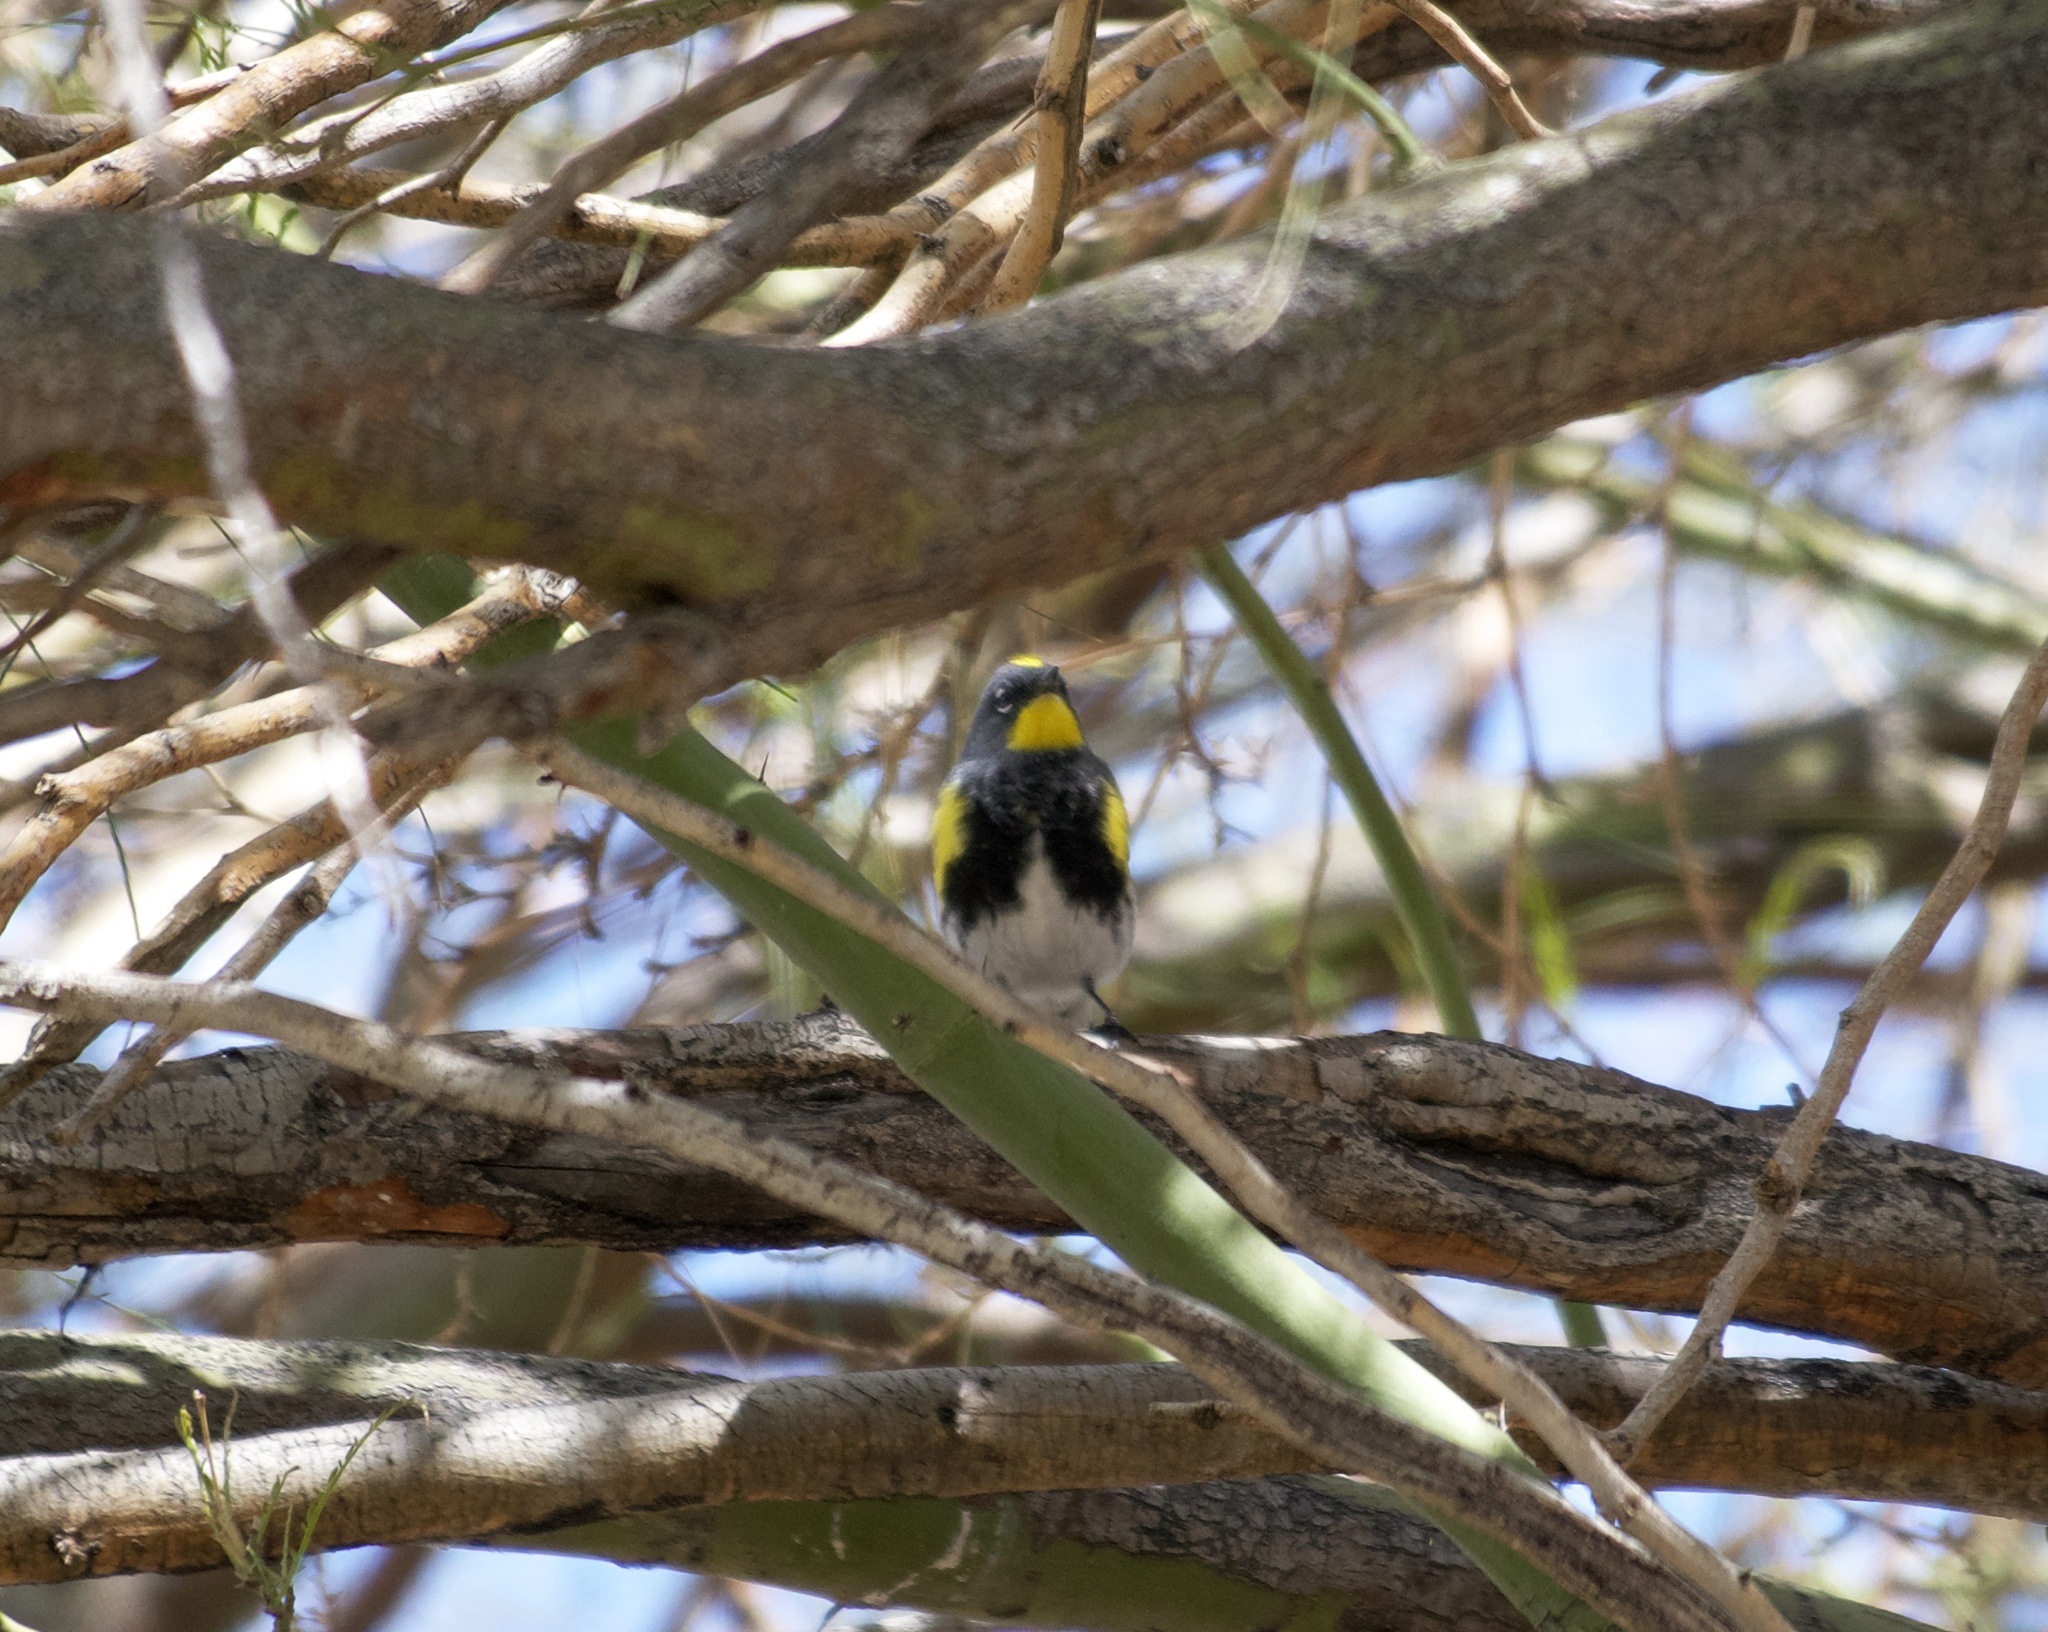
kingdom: Animalia
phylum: Chordata
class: Aves
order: Passeriformes
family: Parulidae
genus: Setophaga
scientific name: Setophaga auduboni
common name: Audubon's warbler
